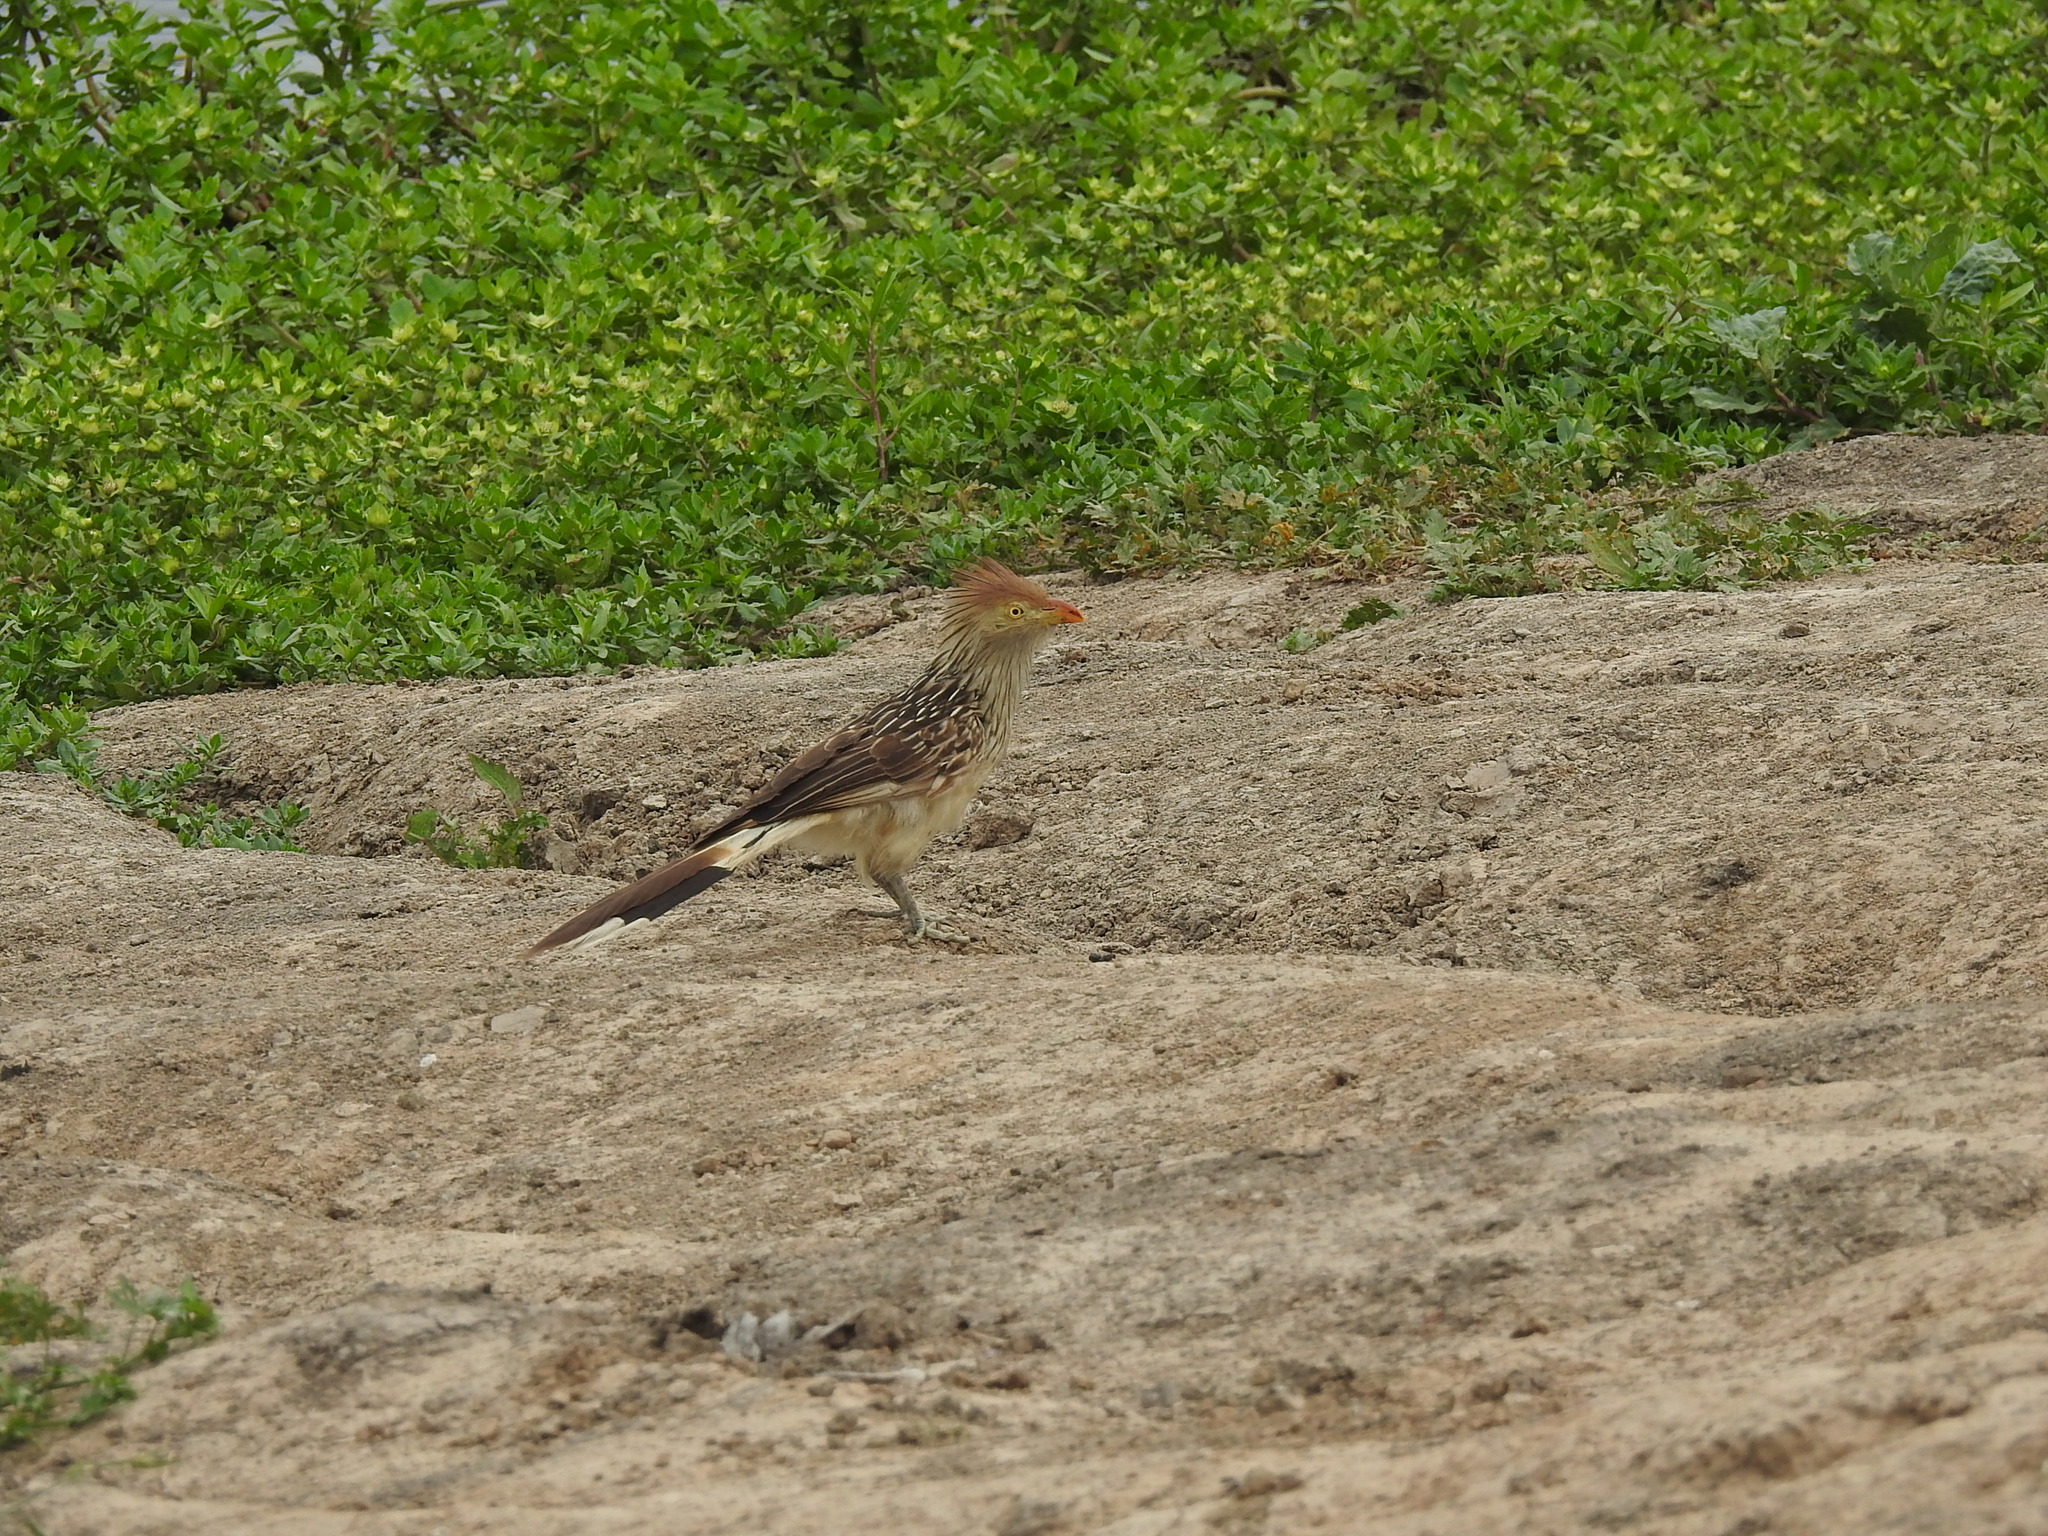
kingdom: Animalia
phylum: Chordata
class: Aves
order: Cuculiformes
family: Cuculidae
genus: Guira
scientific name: Guira guira
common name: Guira cuckoo
